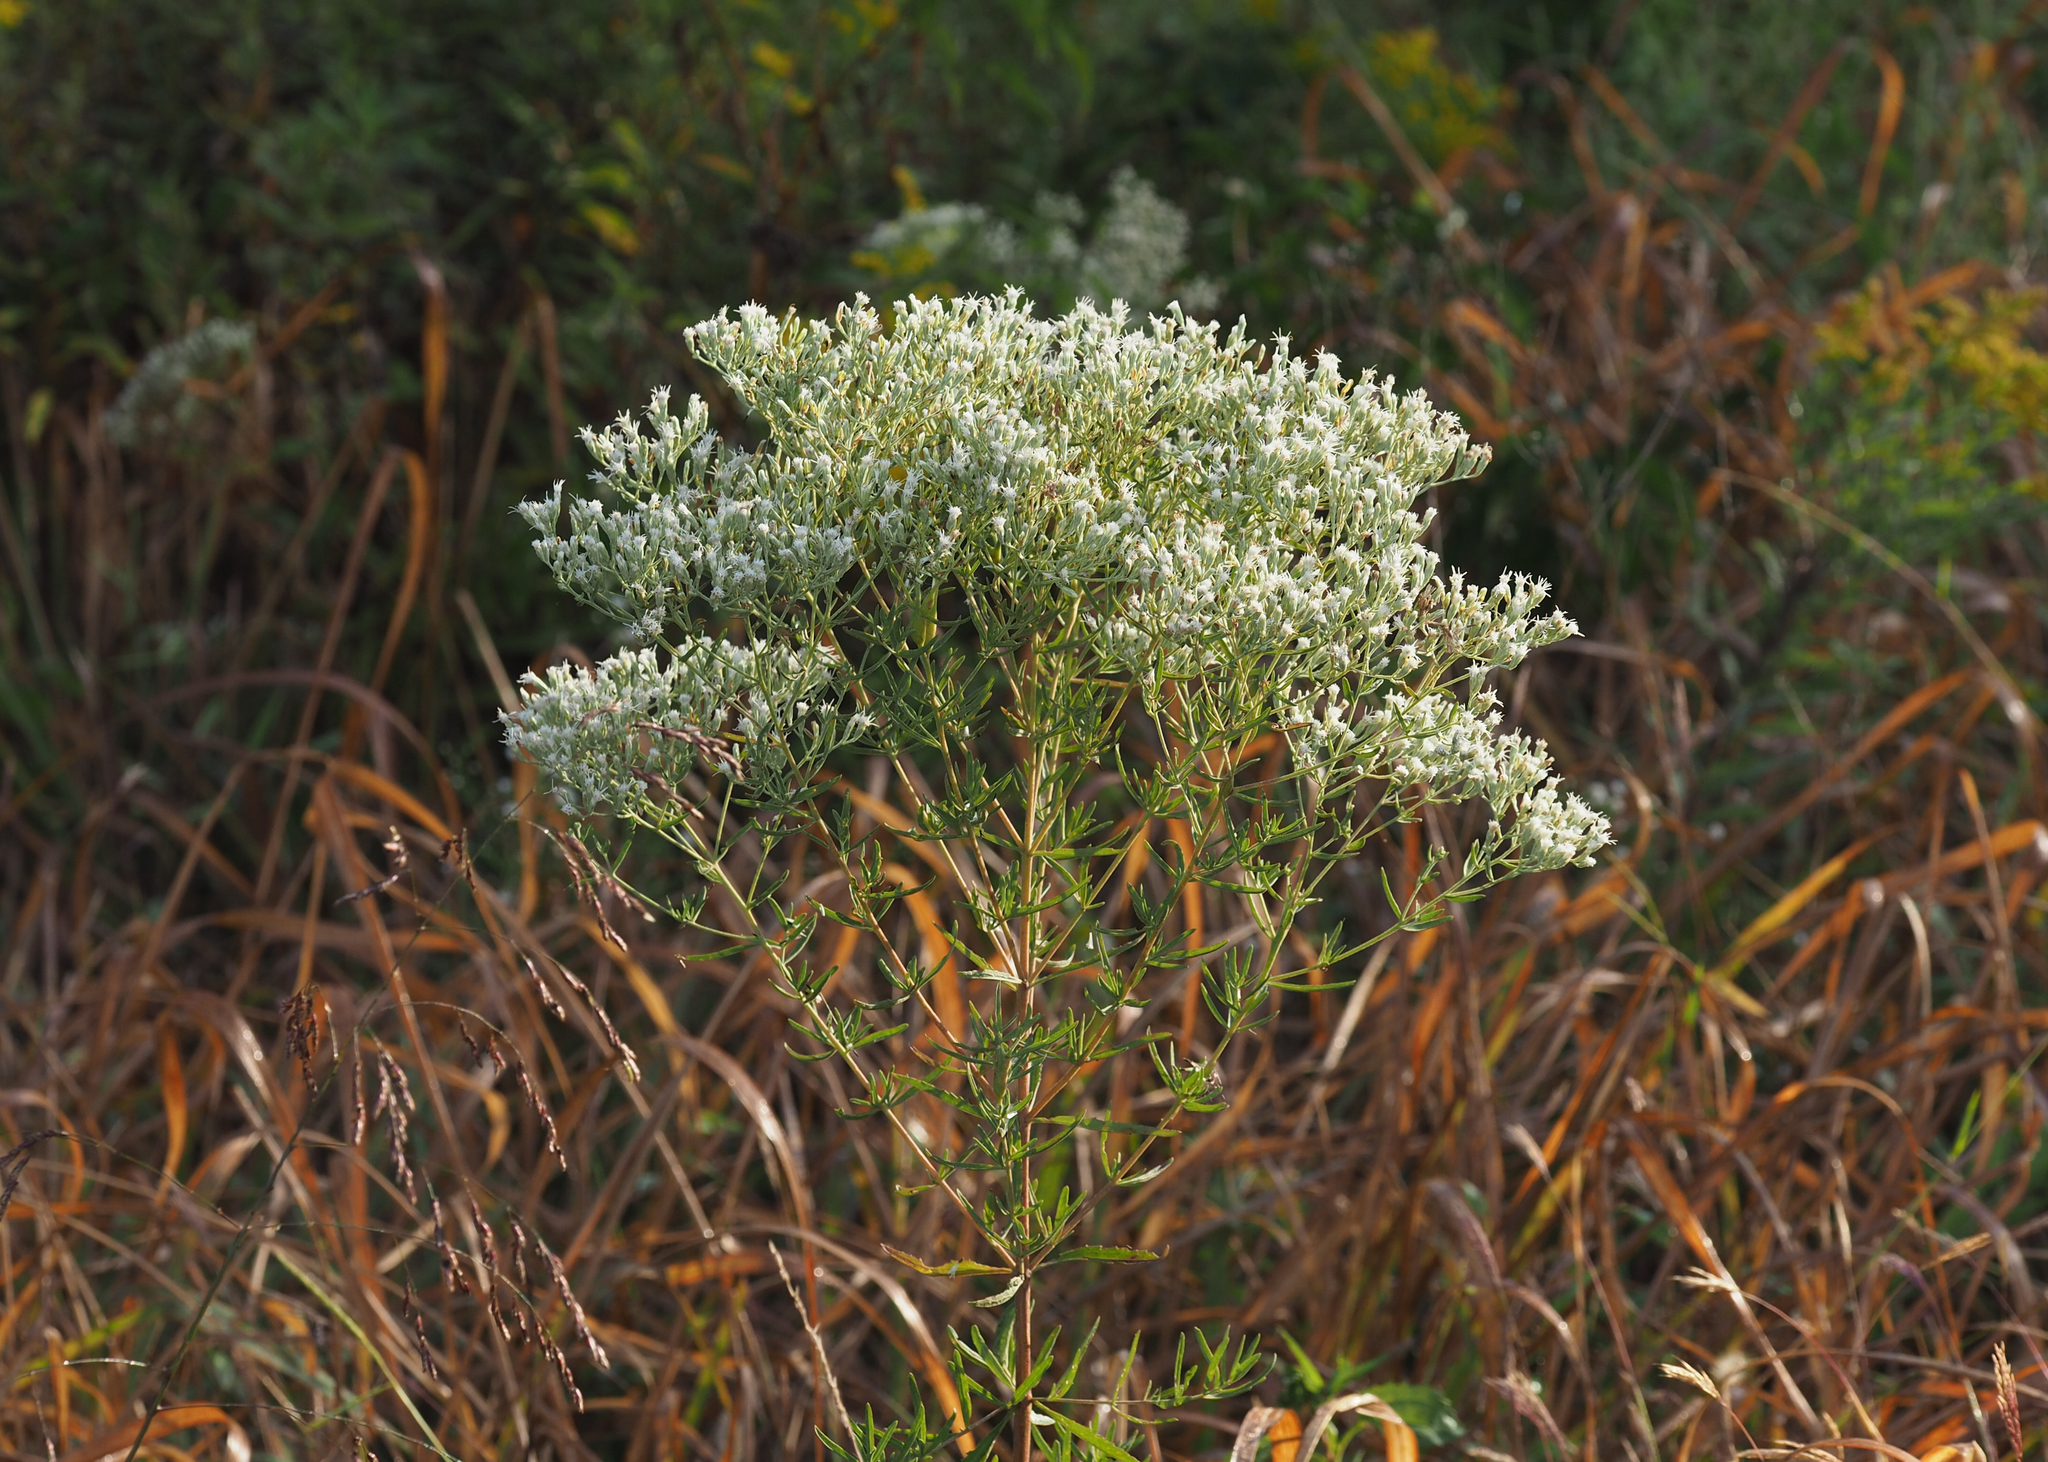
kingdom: Plantae
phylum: Tracheophyta
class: Magnoliopsida
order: Asterales
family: Asteraceae
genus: Eupatorium
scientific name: Eupatorium hyssopifolium
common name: Hyssop-leaf thoroughwort
